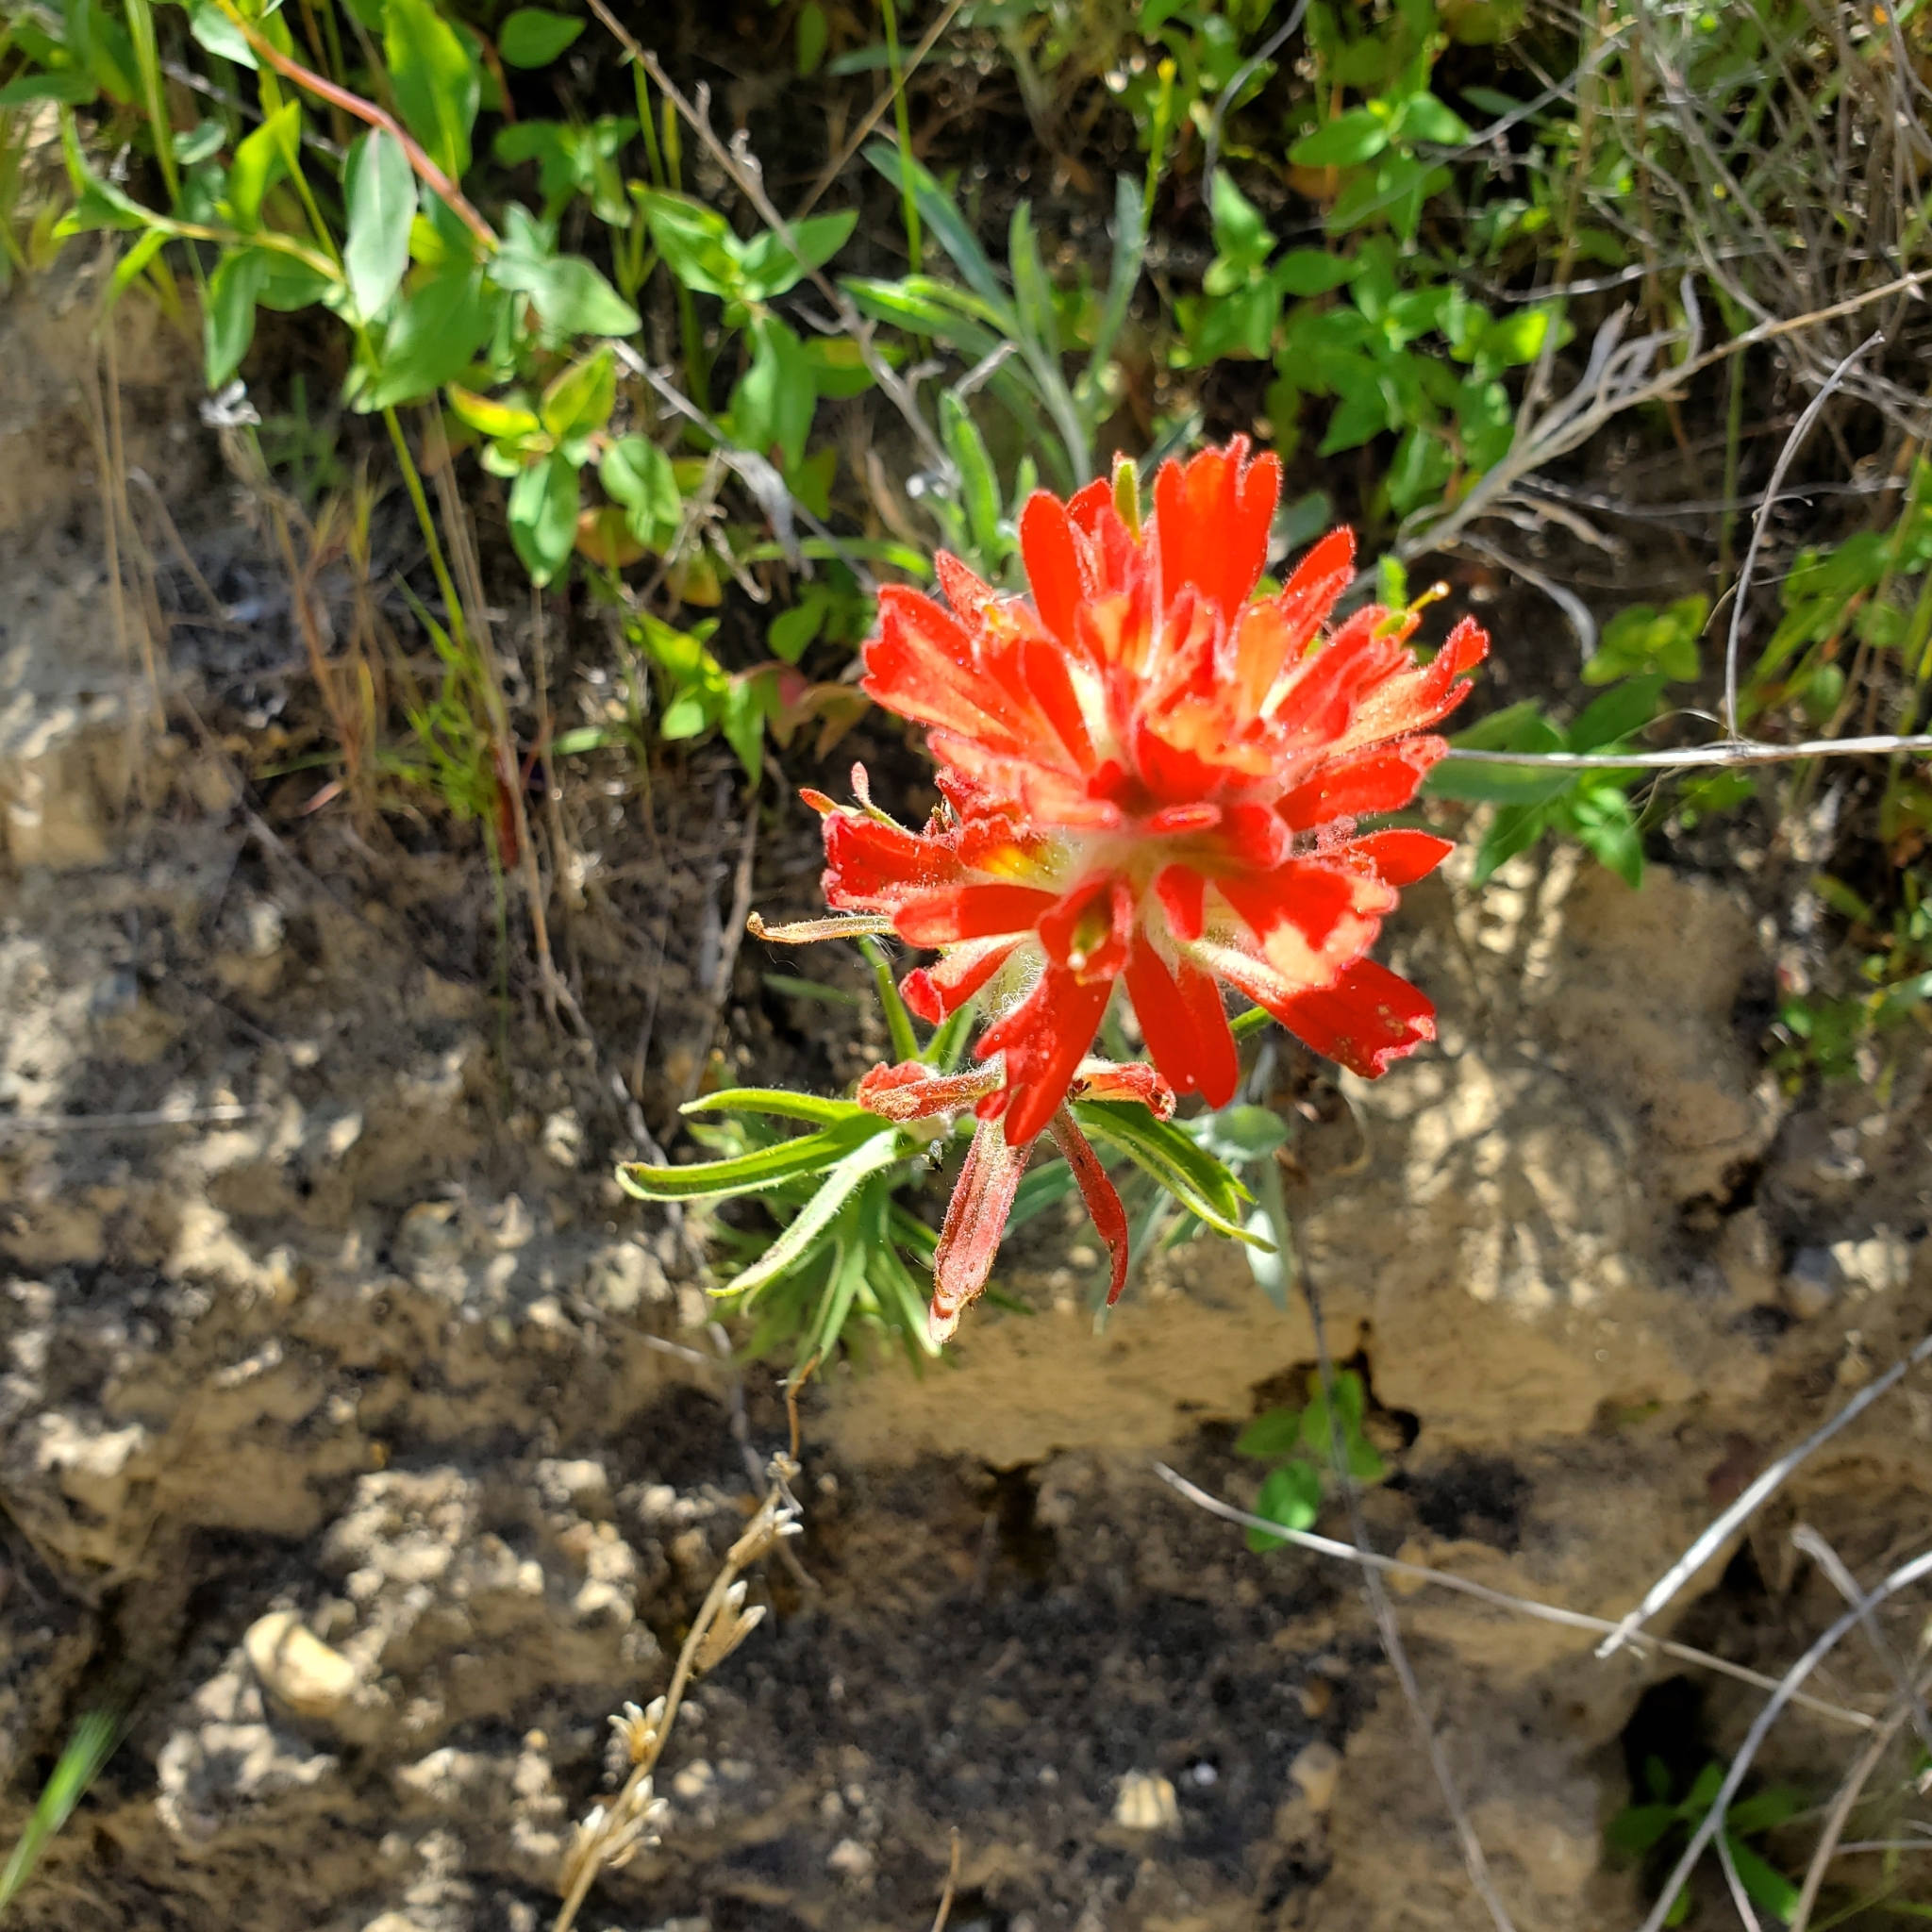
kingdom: Plantae
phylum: Tracheophyta
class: Magnoliopsida
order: Lamiales
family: Orobanchaceae
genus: Castilleja
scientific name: Castilleja affinis
